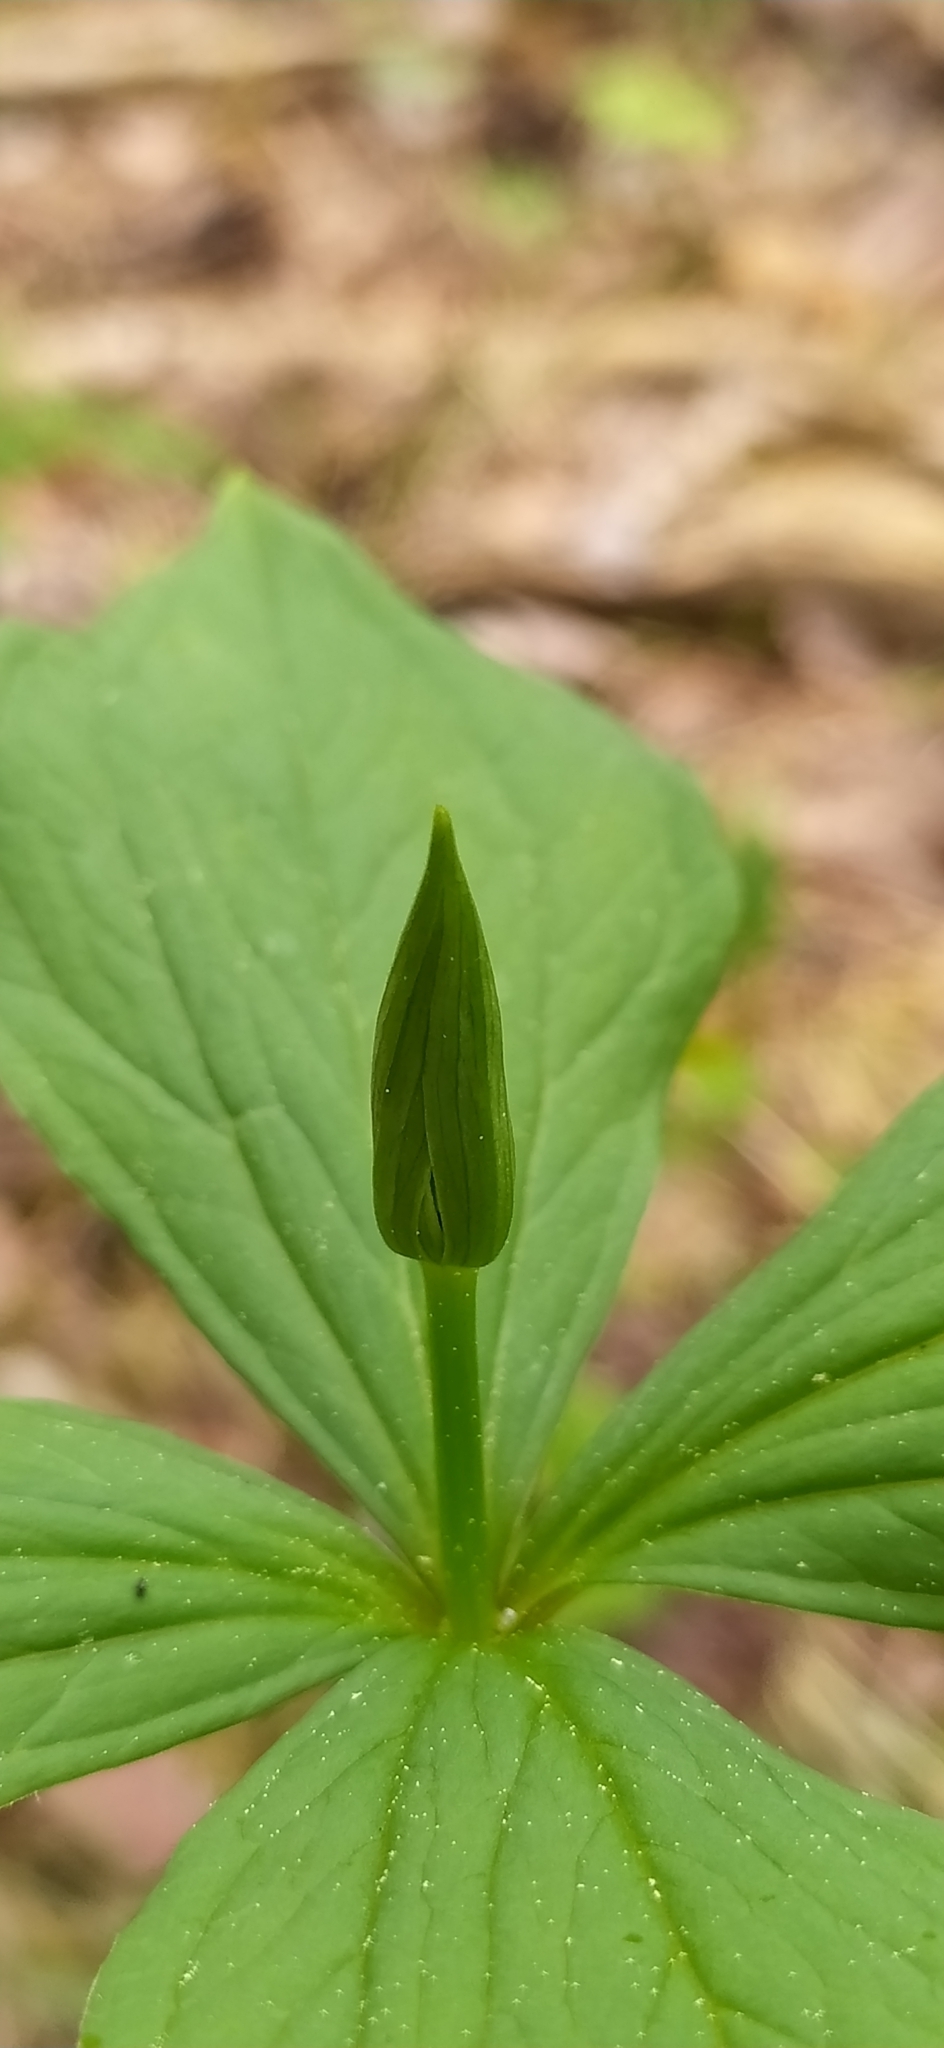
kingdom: Plantae
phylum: Tracheophyta
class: Liliopsida
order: Liliales
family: Melanthiaceae
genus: Paris
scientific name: Paris quadrifolia
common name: Herb-paris
